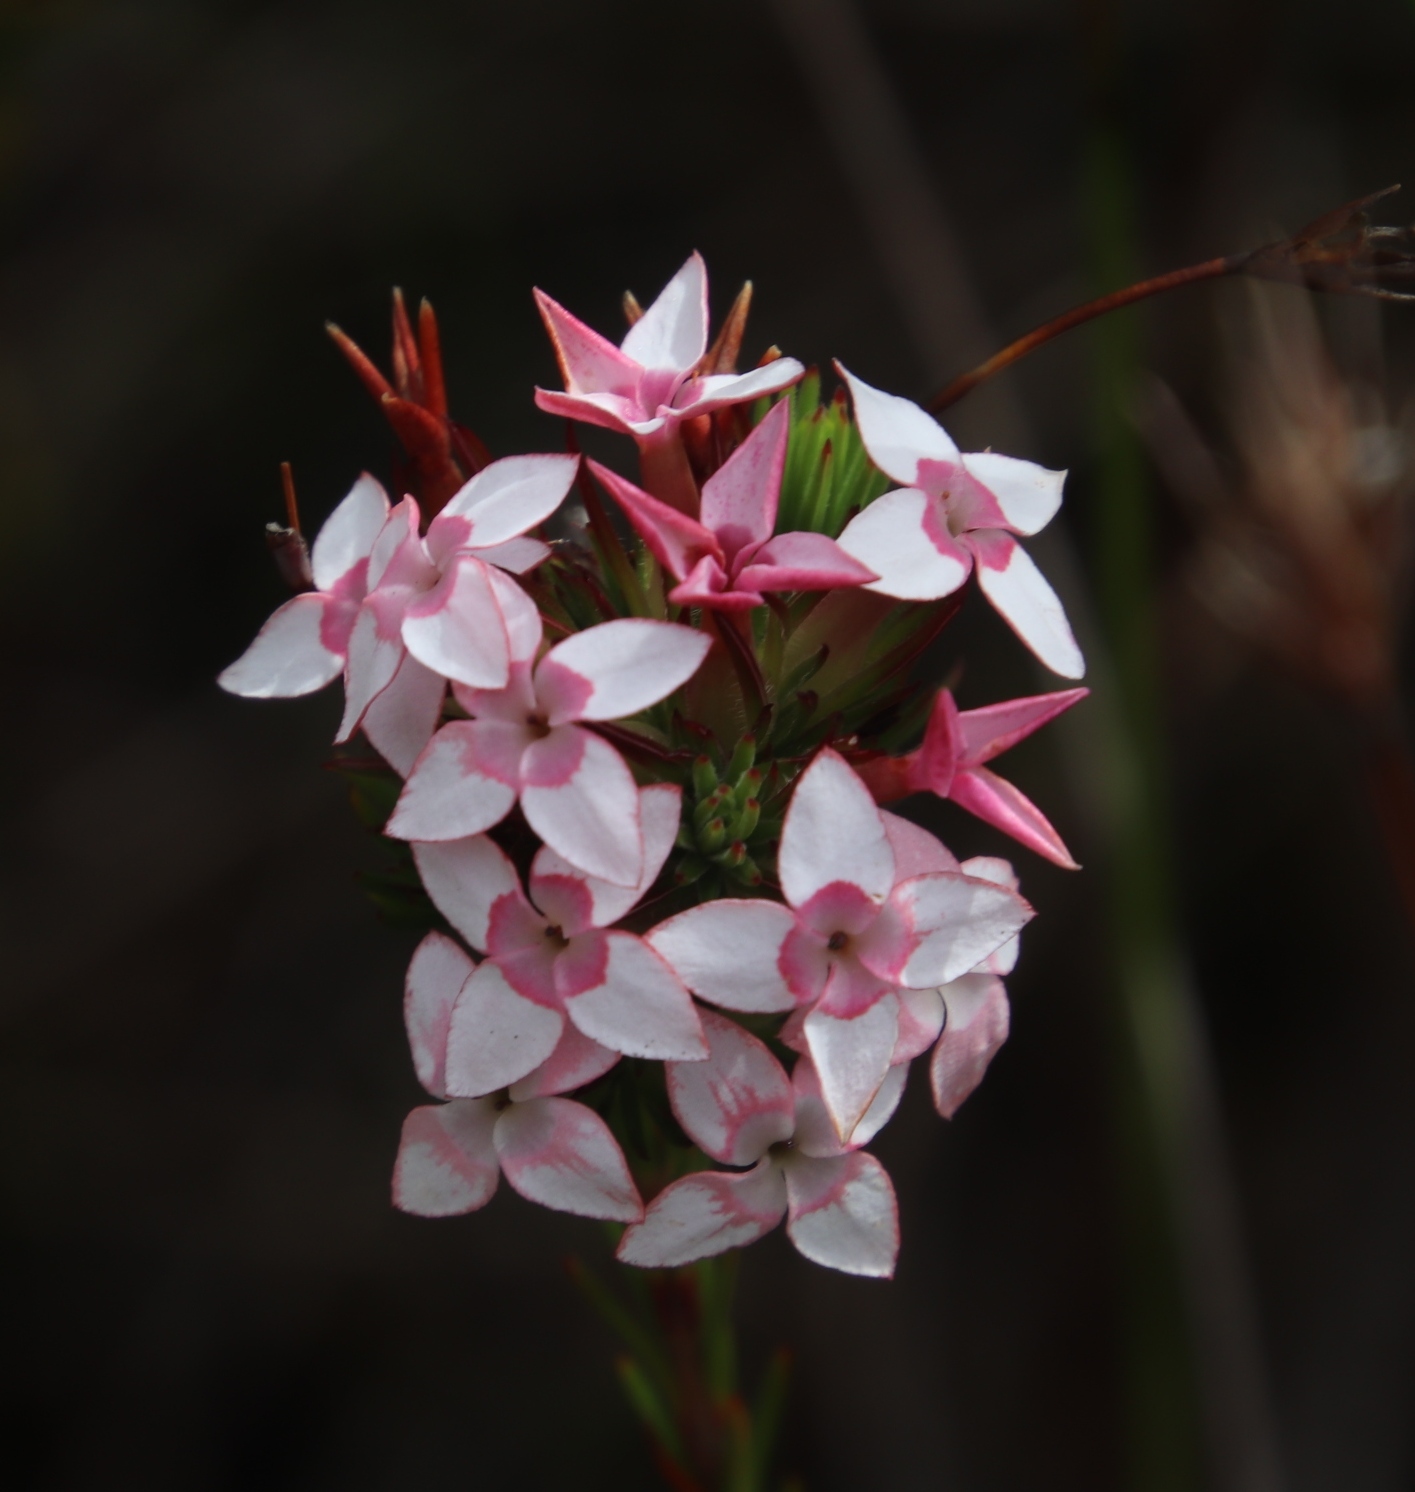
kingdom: Plantae
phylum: Tracheophyta
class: Magnoliopsida
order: Ericales
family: Ericaceae
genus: Erica
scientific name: Erica fastigiata
